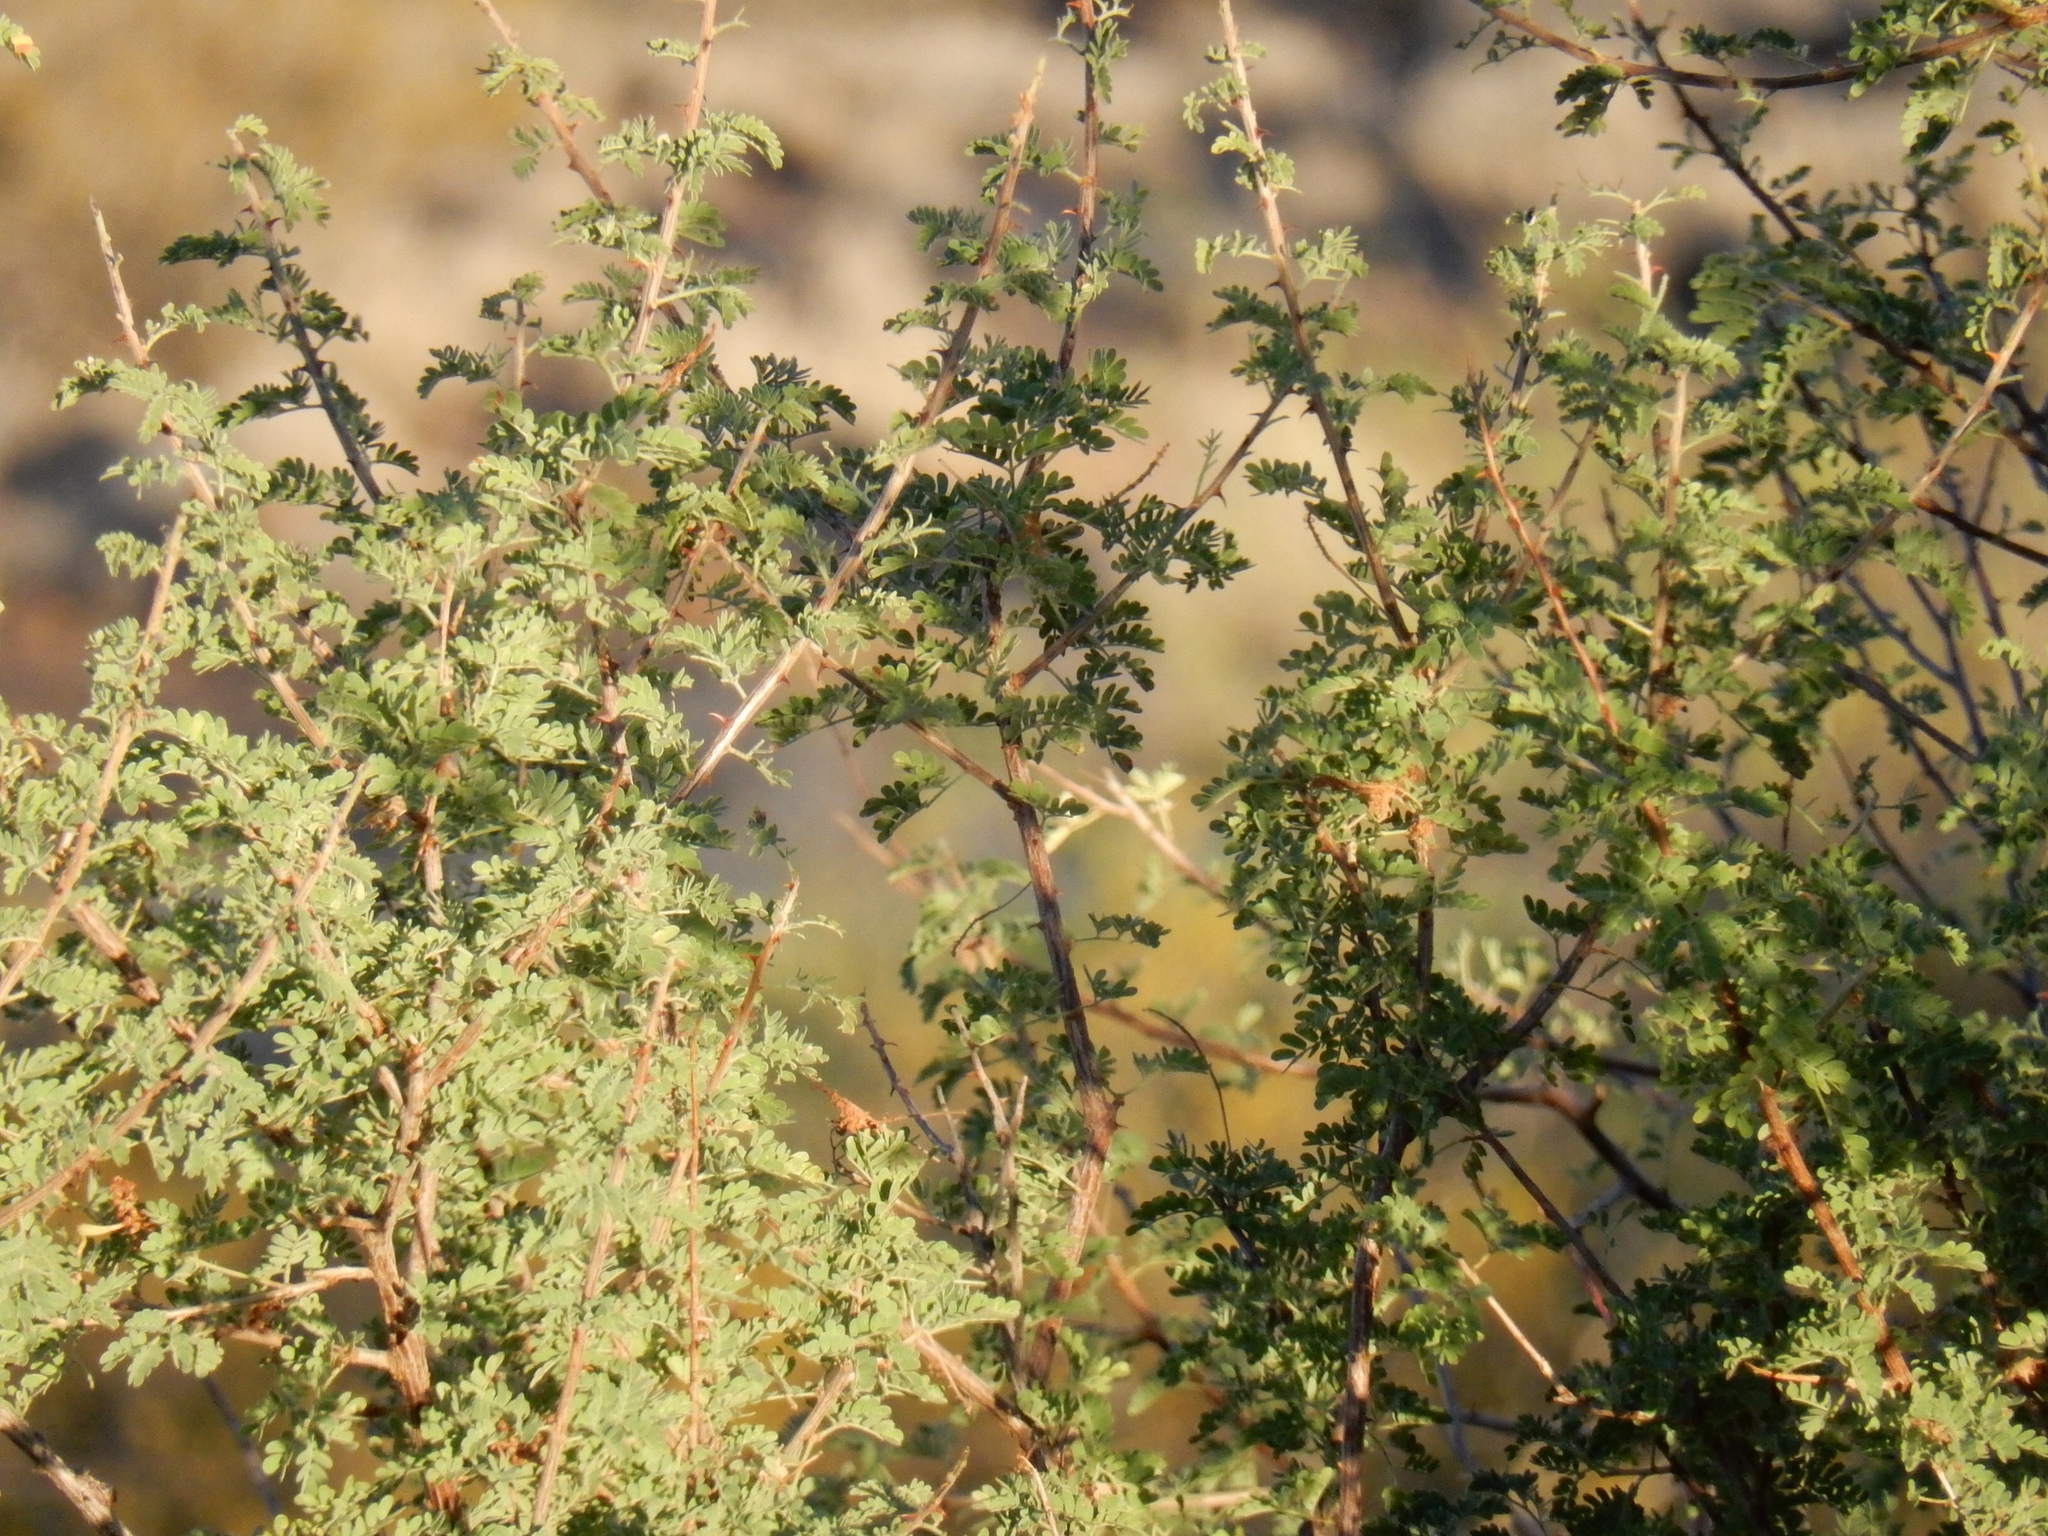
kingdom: Plantae
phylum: Tracheophyta
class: Magnoliopsida
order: Fabales
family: Fabaceae
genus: Senegalia
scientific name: Senegalia greggii
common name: Texas-mimosa
